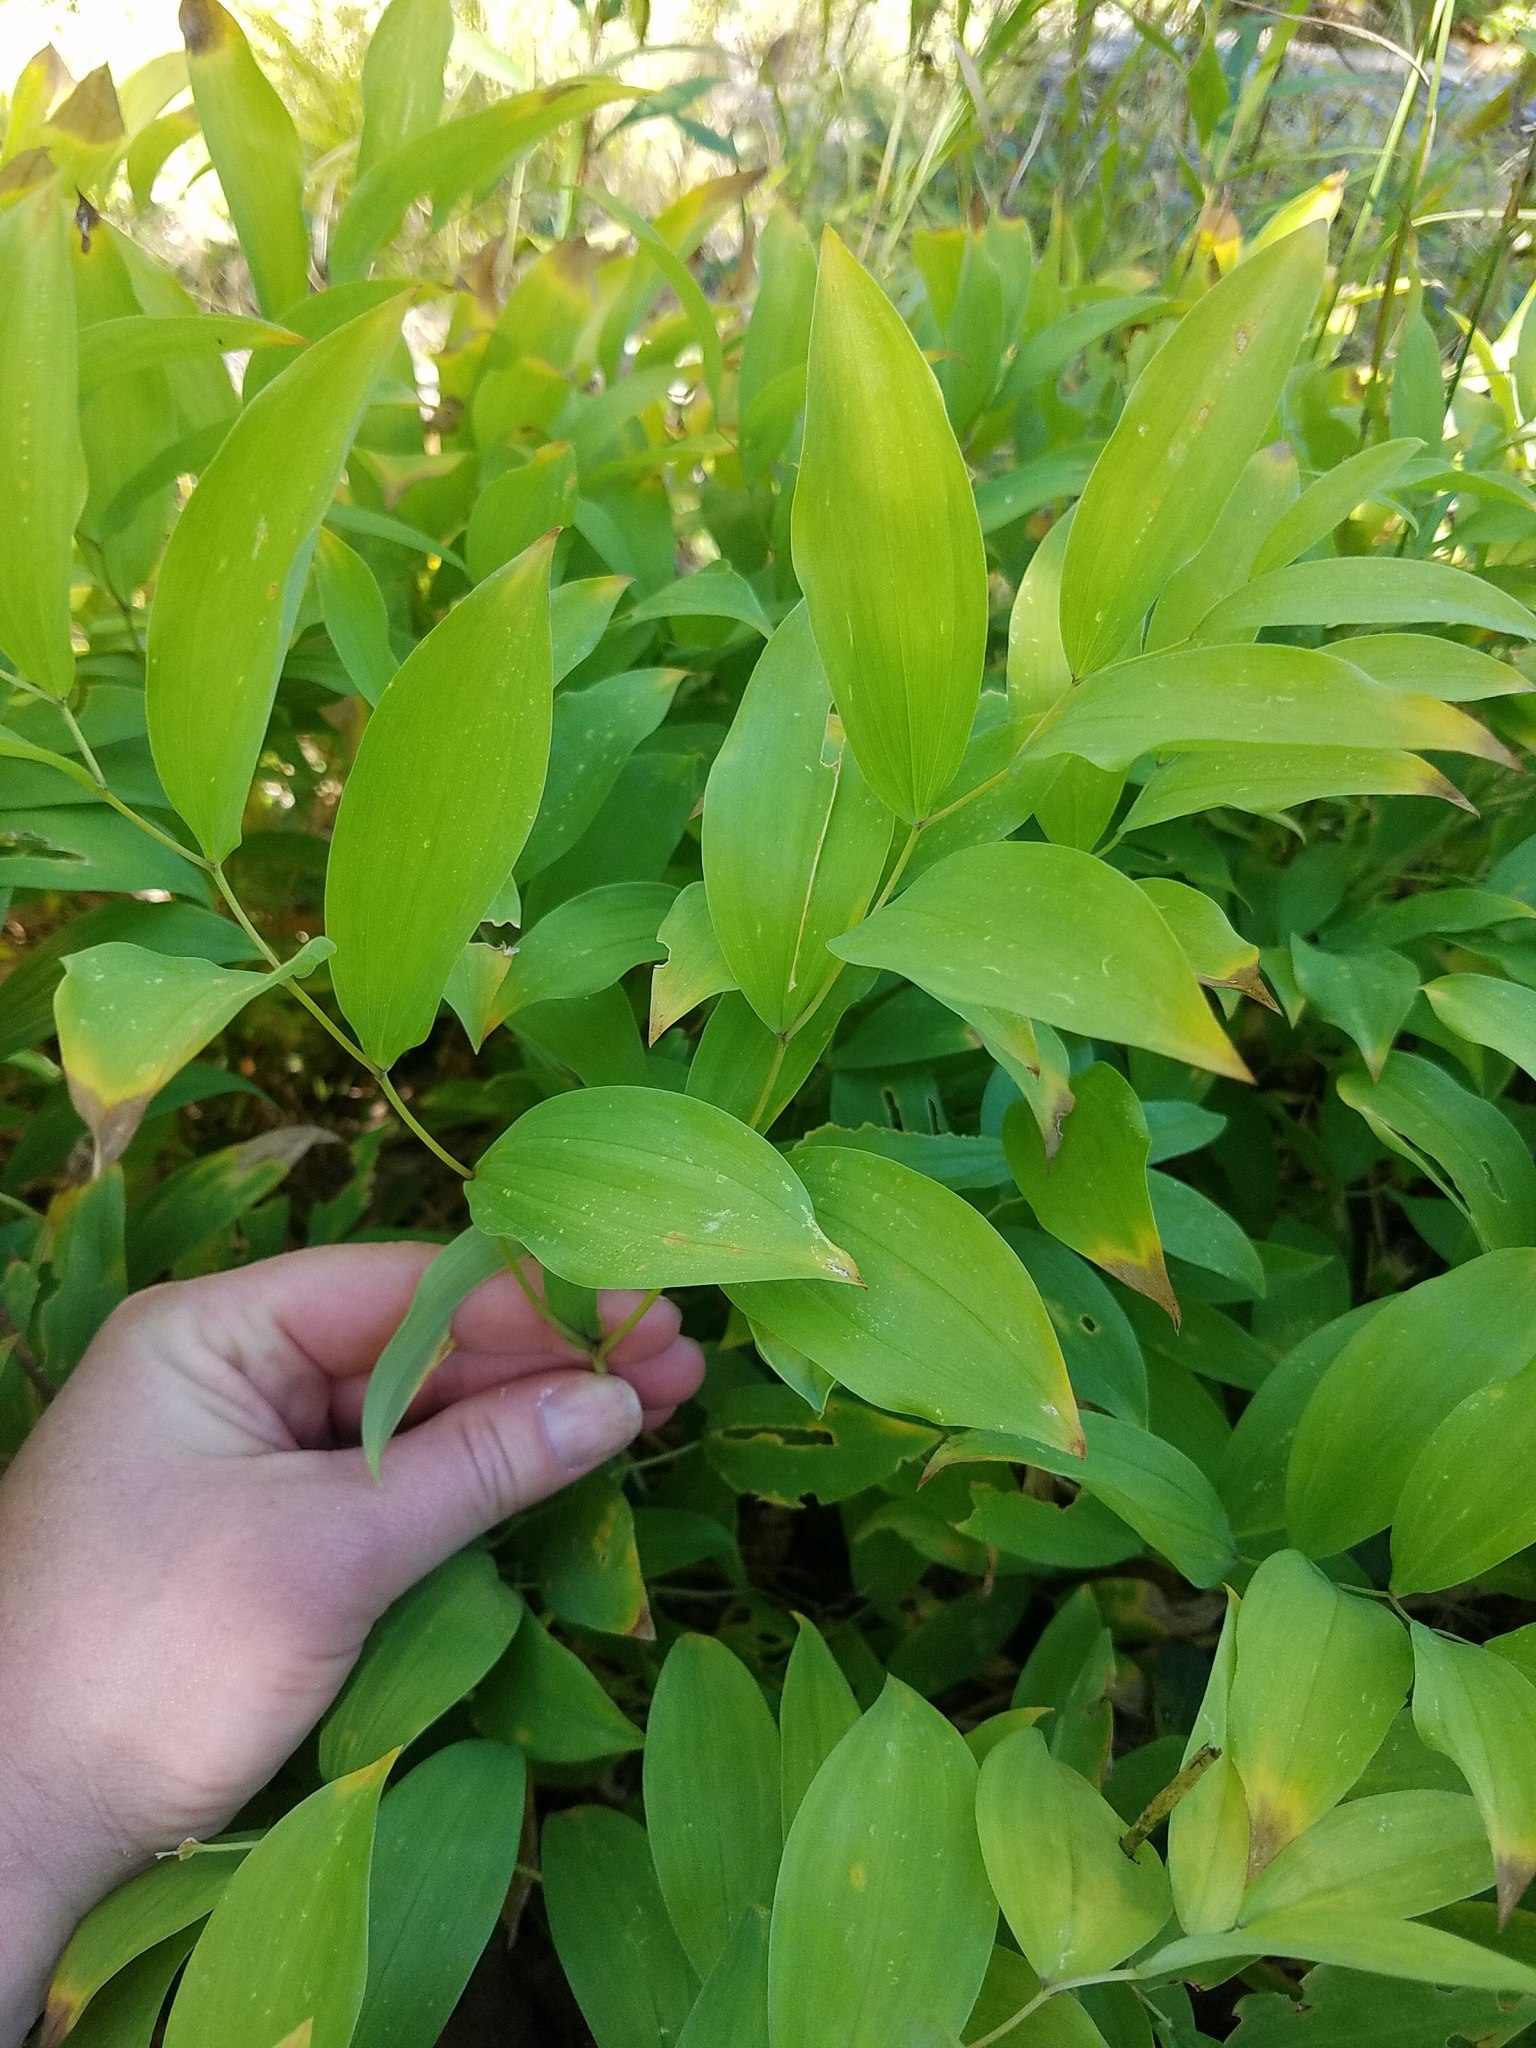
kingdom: Plantae
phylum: Tracheophyta
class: Liliopsida
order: Liliales
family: Colchicaceae
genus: Uvularia
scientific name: Uvularia sessilifolia
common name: Straw-lily
